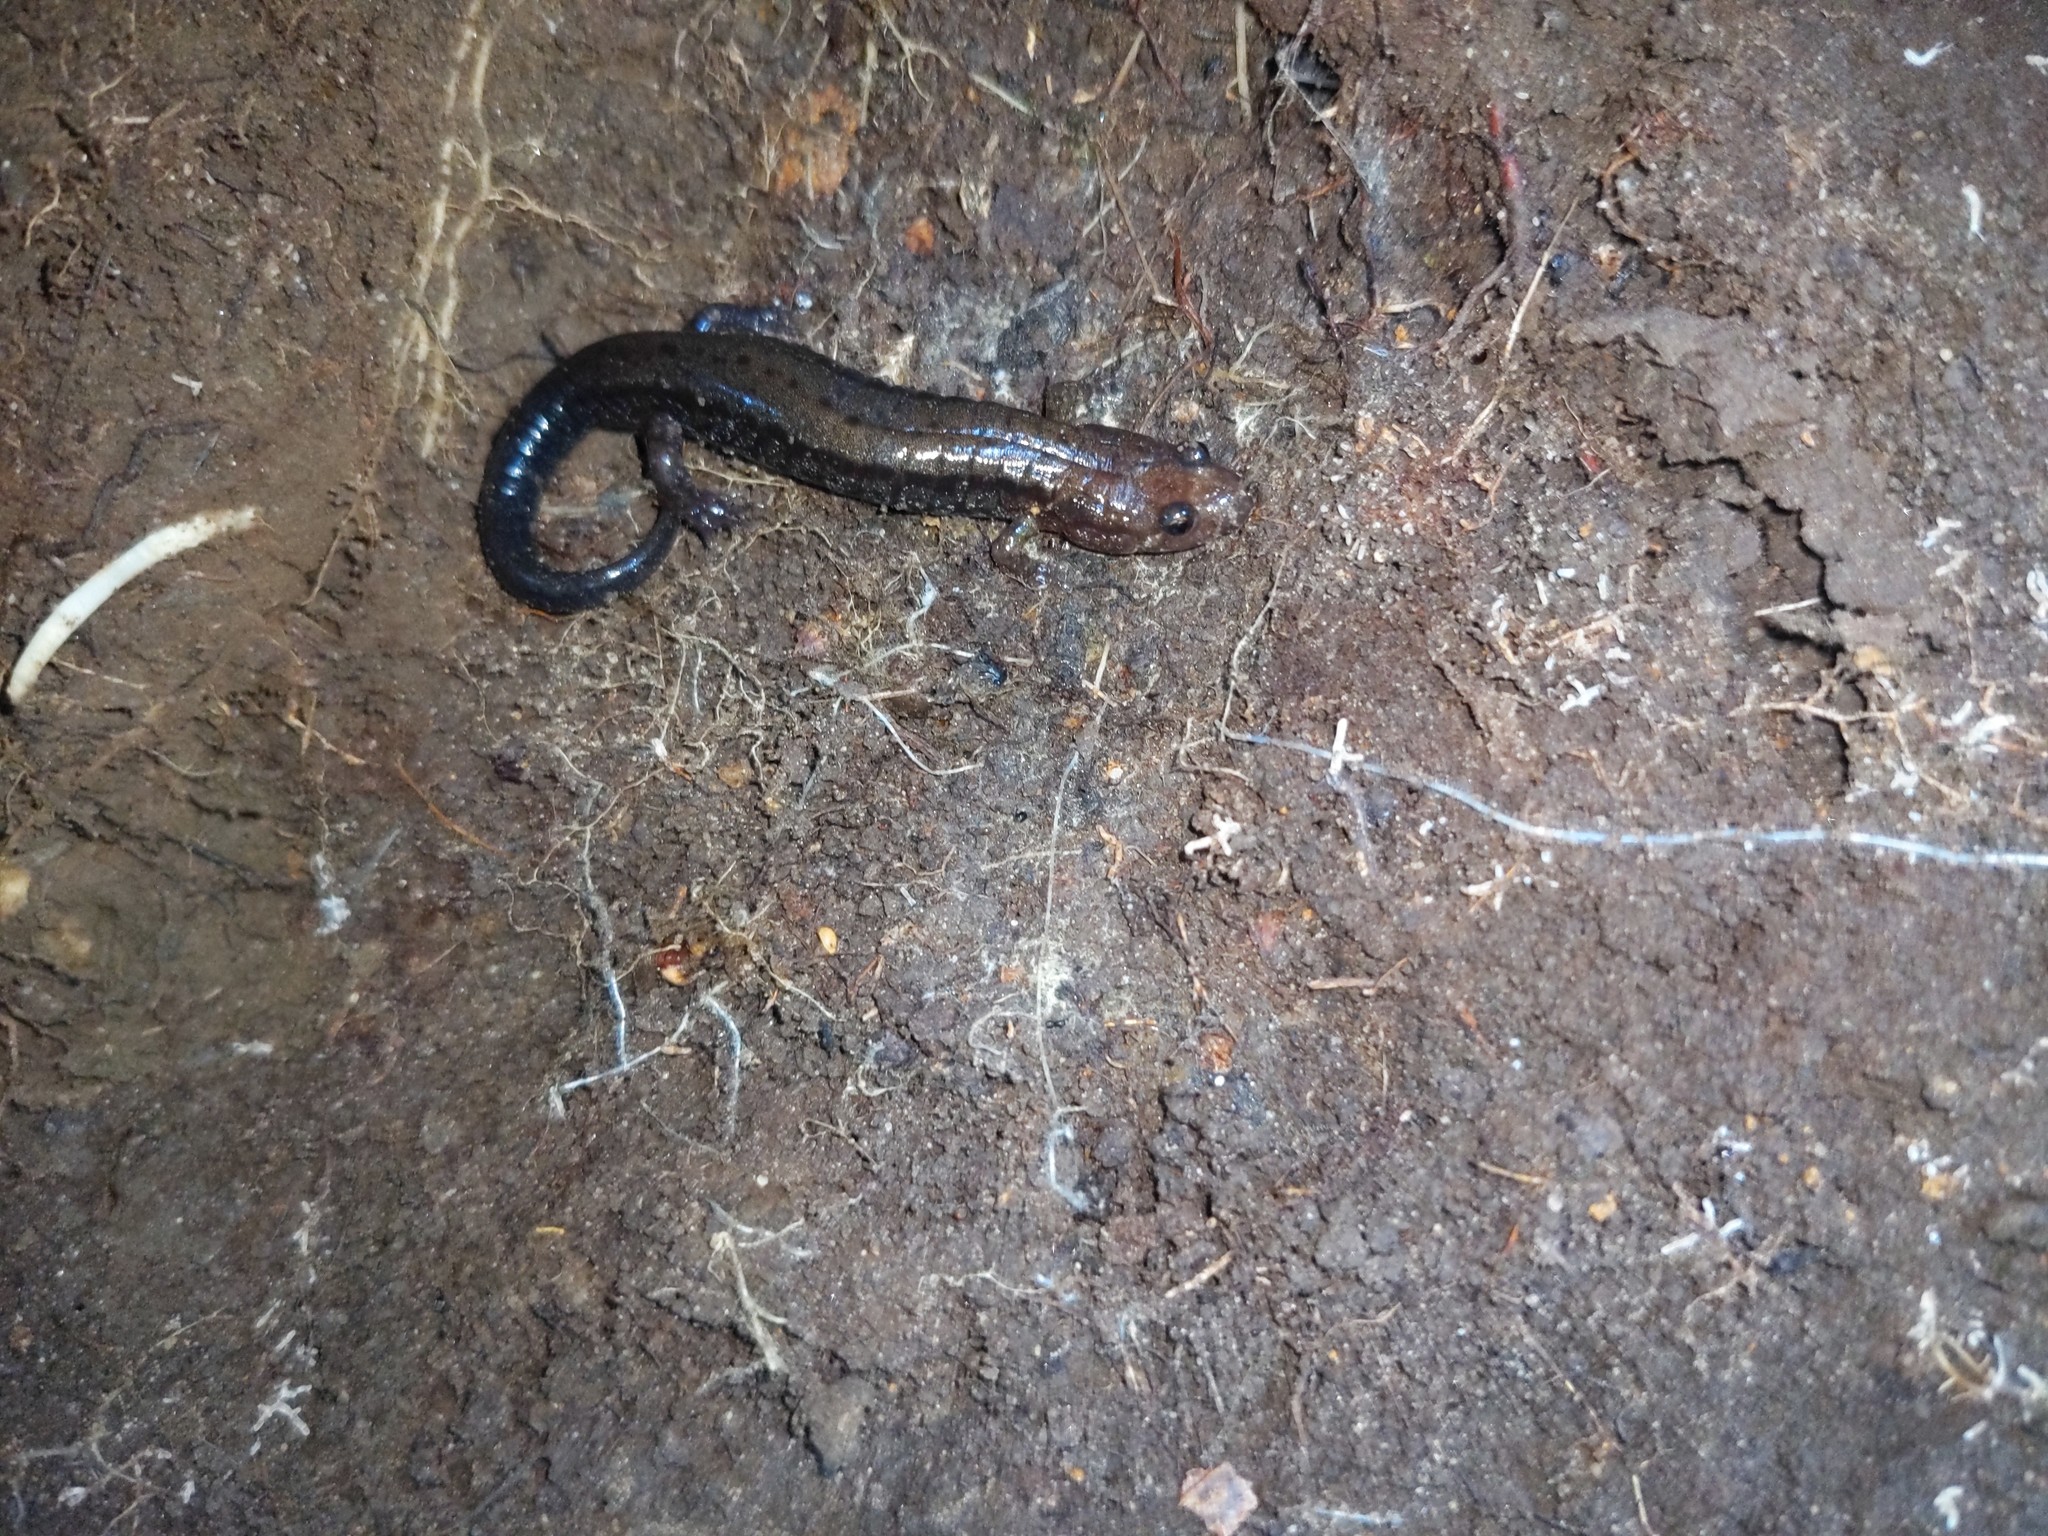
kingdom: Animalia
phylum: Chordata
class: Amphibia
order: Caudata
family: Plethodontidae
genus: Desmognathus
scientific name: Desmognathus ochrophaeus
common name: Allegheny mountain dusky salamander
